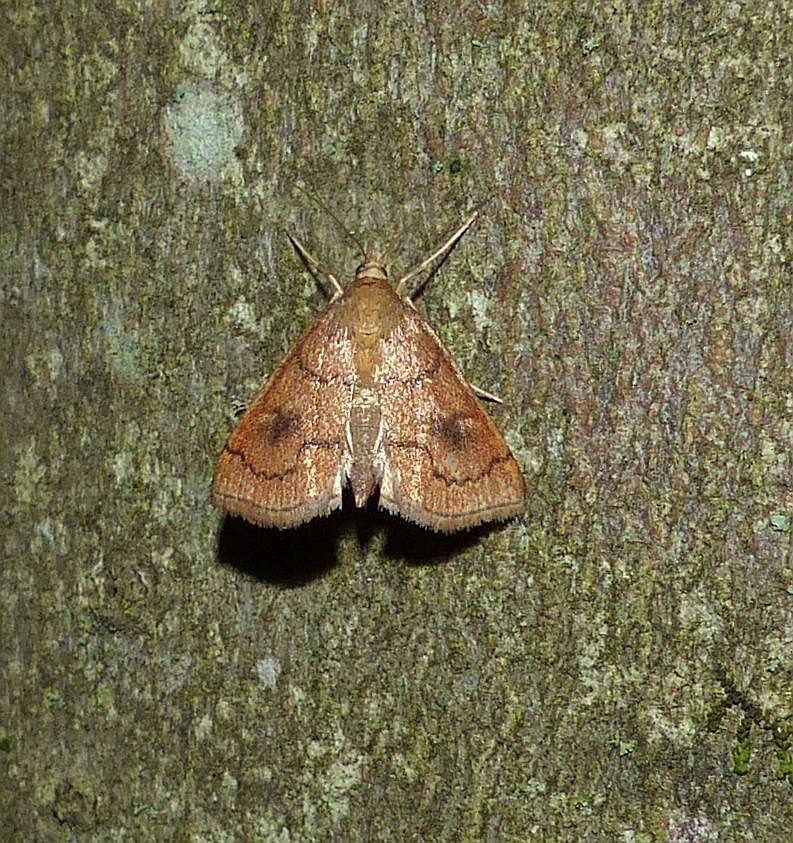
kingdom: Animalia
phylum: Arthropoda
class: Insecta
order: Lepidoptera
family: Crambidae
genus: Fumibotys
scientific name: Fumibotys fumalis
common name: Mint root borer moth
